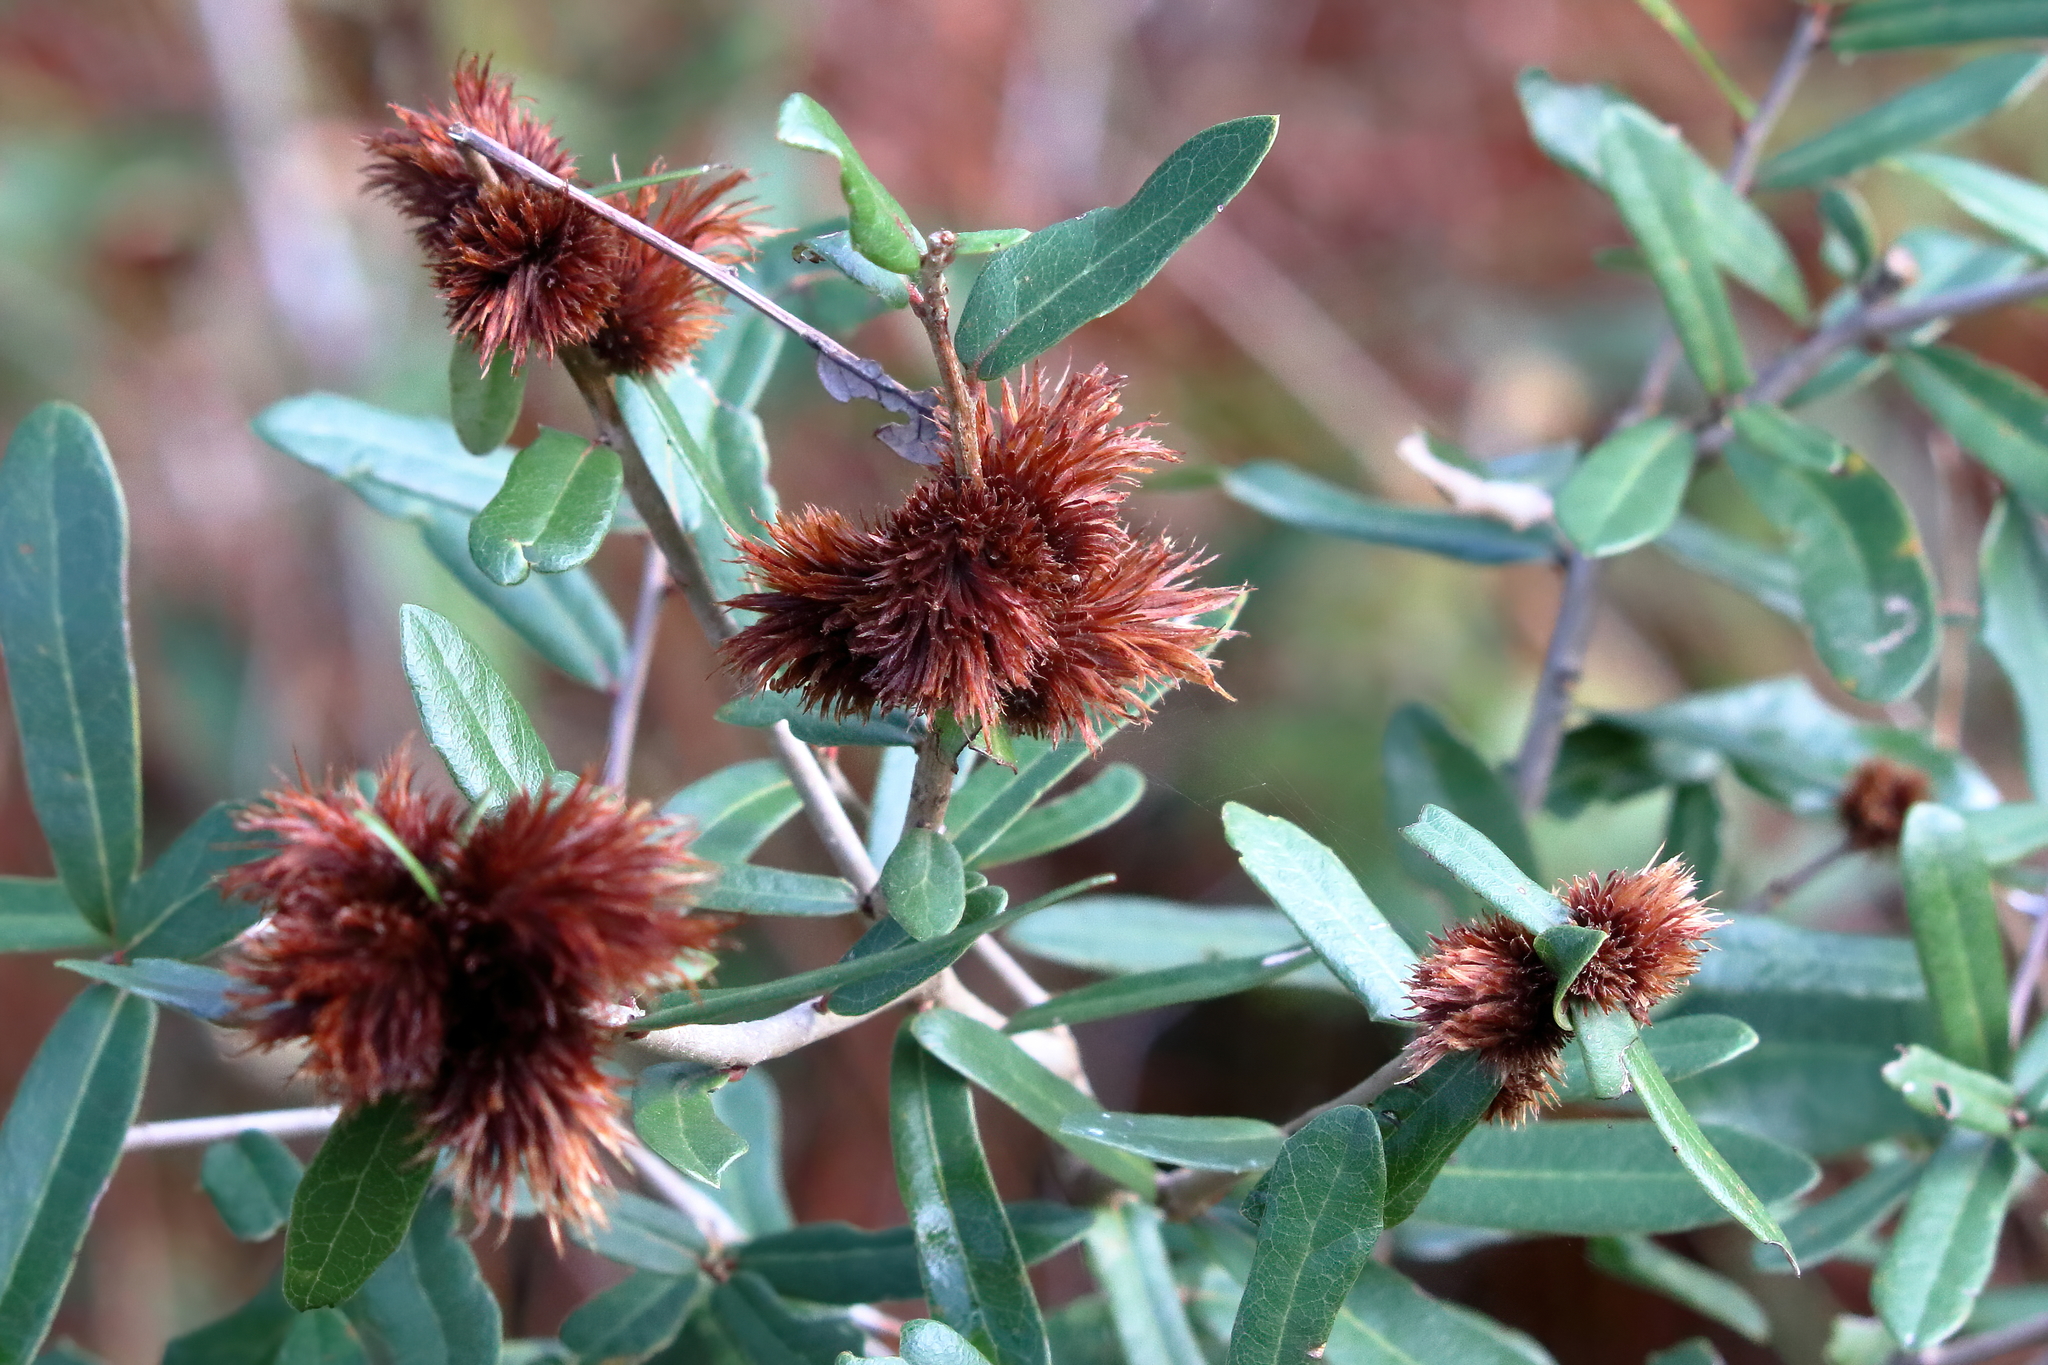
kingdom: Animalia
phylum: Arthropoda
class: Insecta
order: Hymenoptera
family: Cynipidae
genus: Andricus
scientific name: Andricus quercusfoliatus
